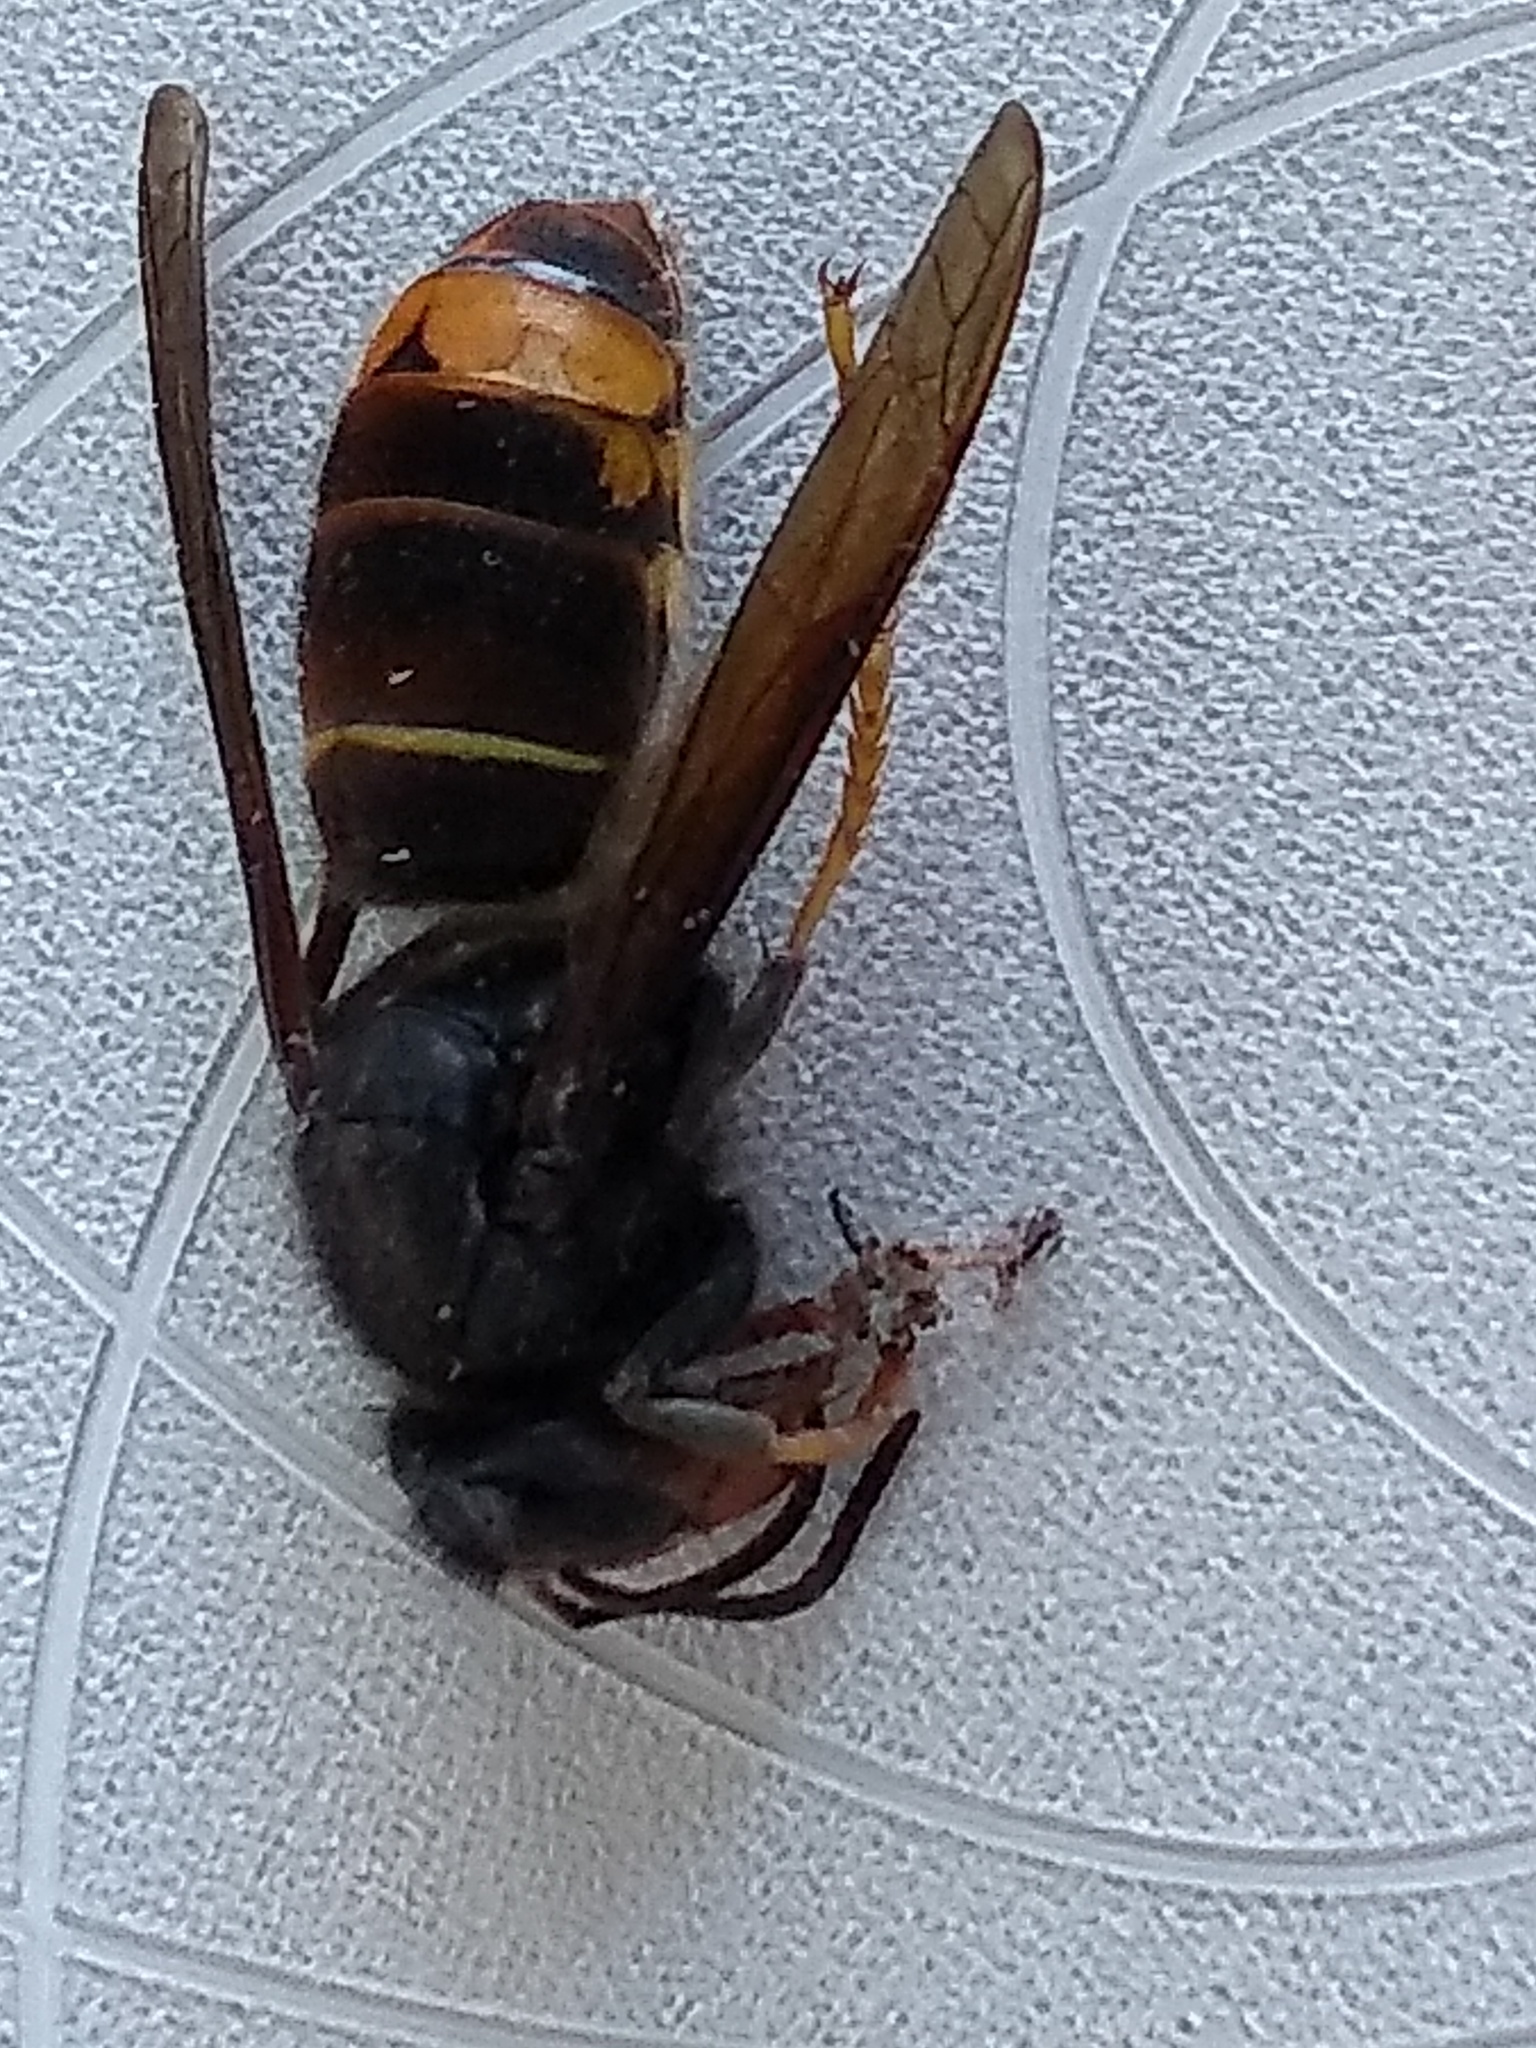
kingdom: Animalia
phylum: Arthropoda
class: Insecta
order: Hymenoptera
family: Vespidae
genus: Vespa
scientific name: Vespa velutina
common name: Asian hornet
